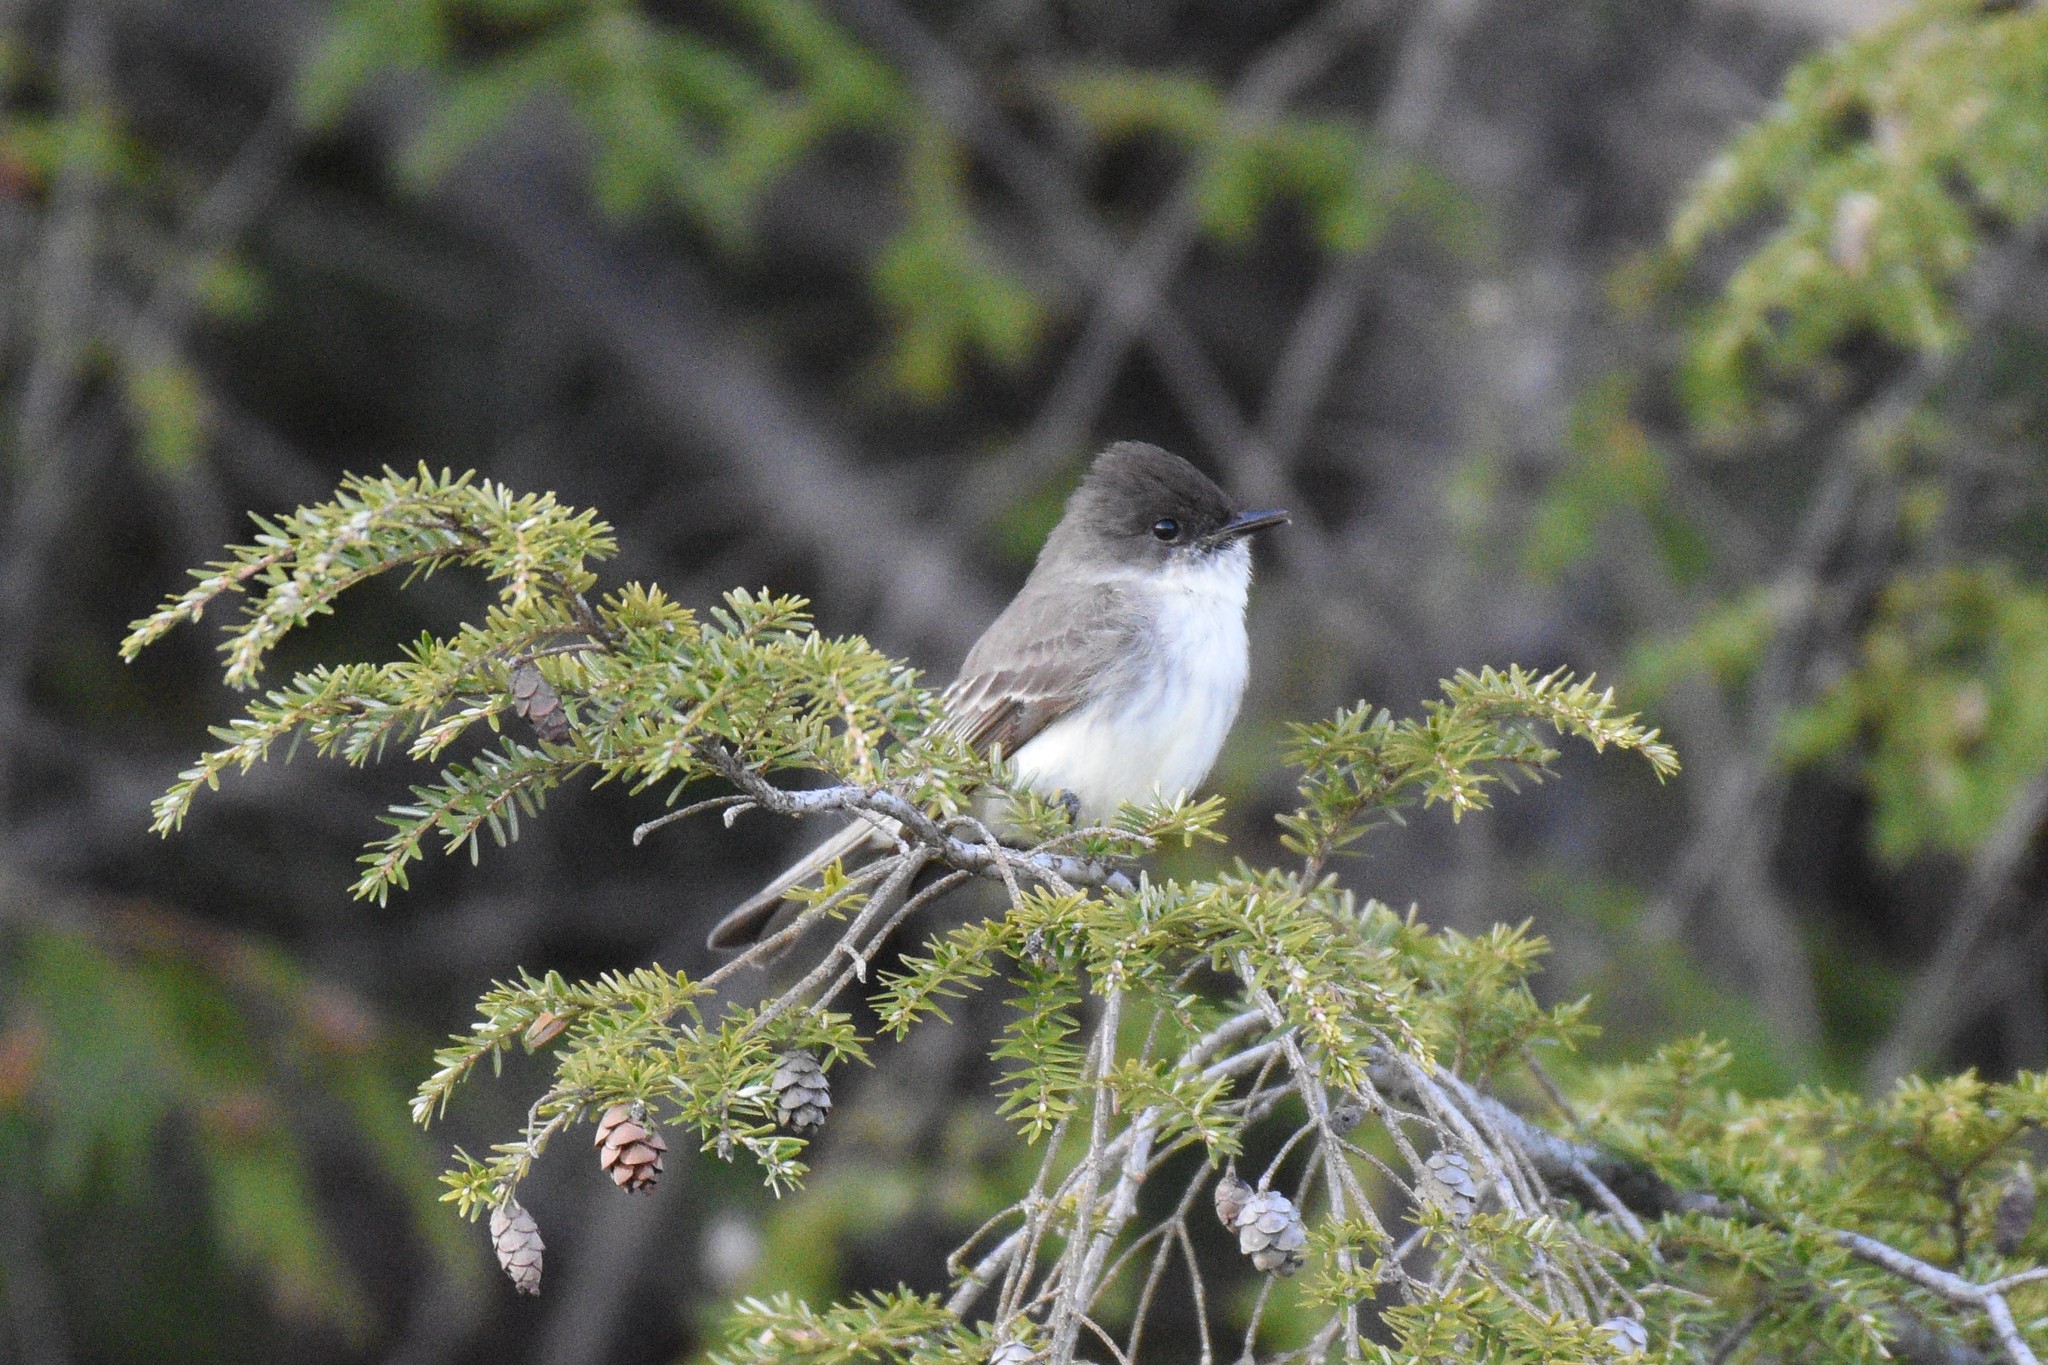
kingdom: Animalia
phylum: Chordata
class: Aves
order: Passeriformes
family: Tyrannidae
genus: Sayornis
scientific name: Sayornis phoebe
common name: Eastern phoebe
